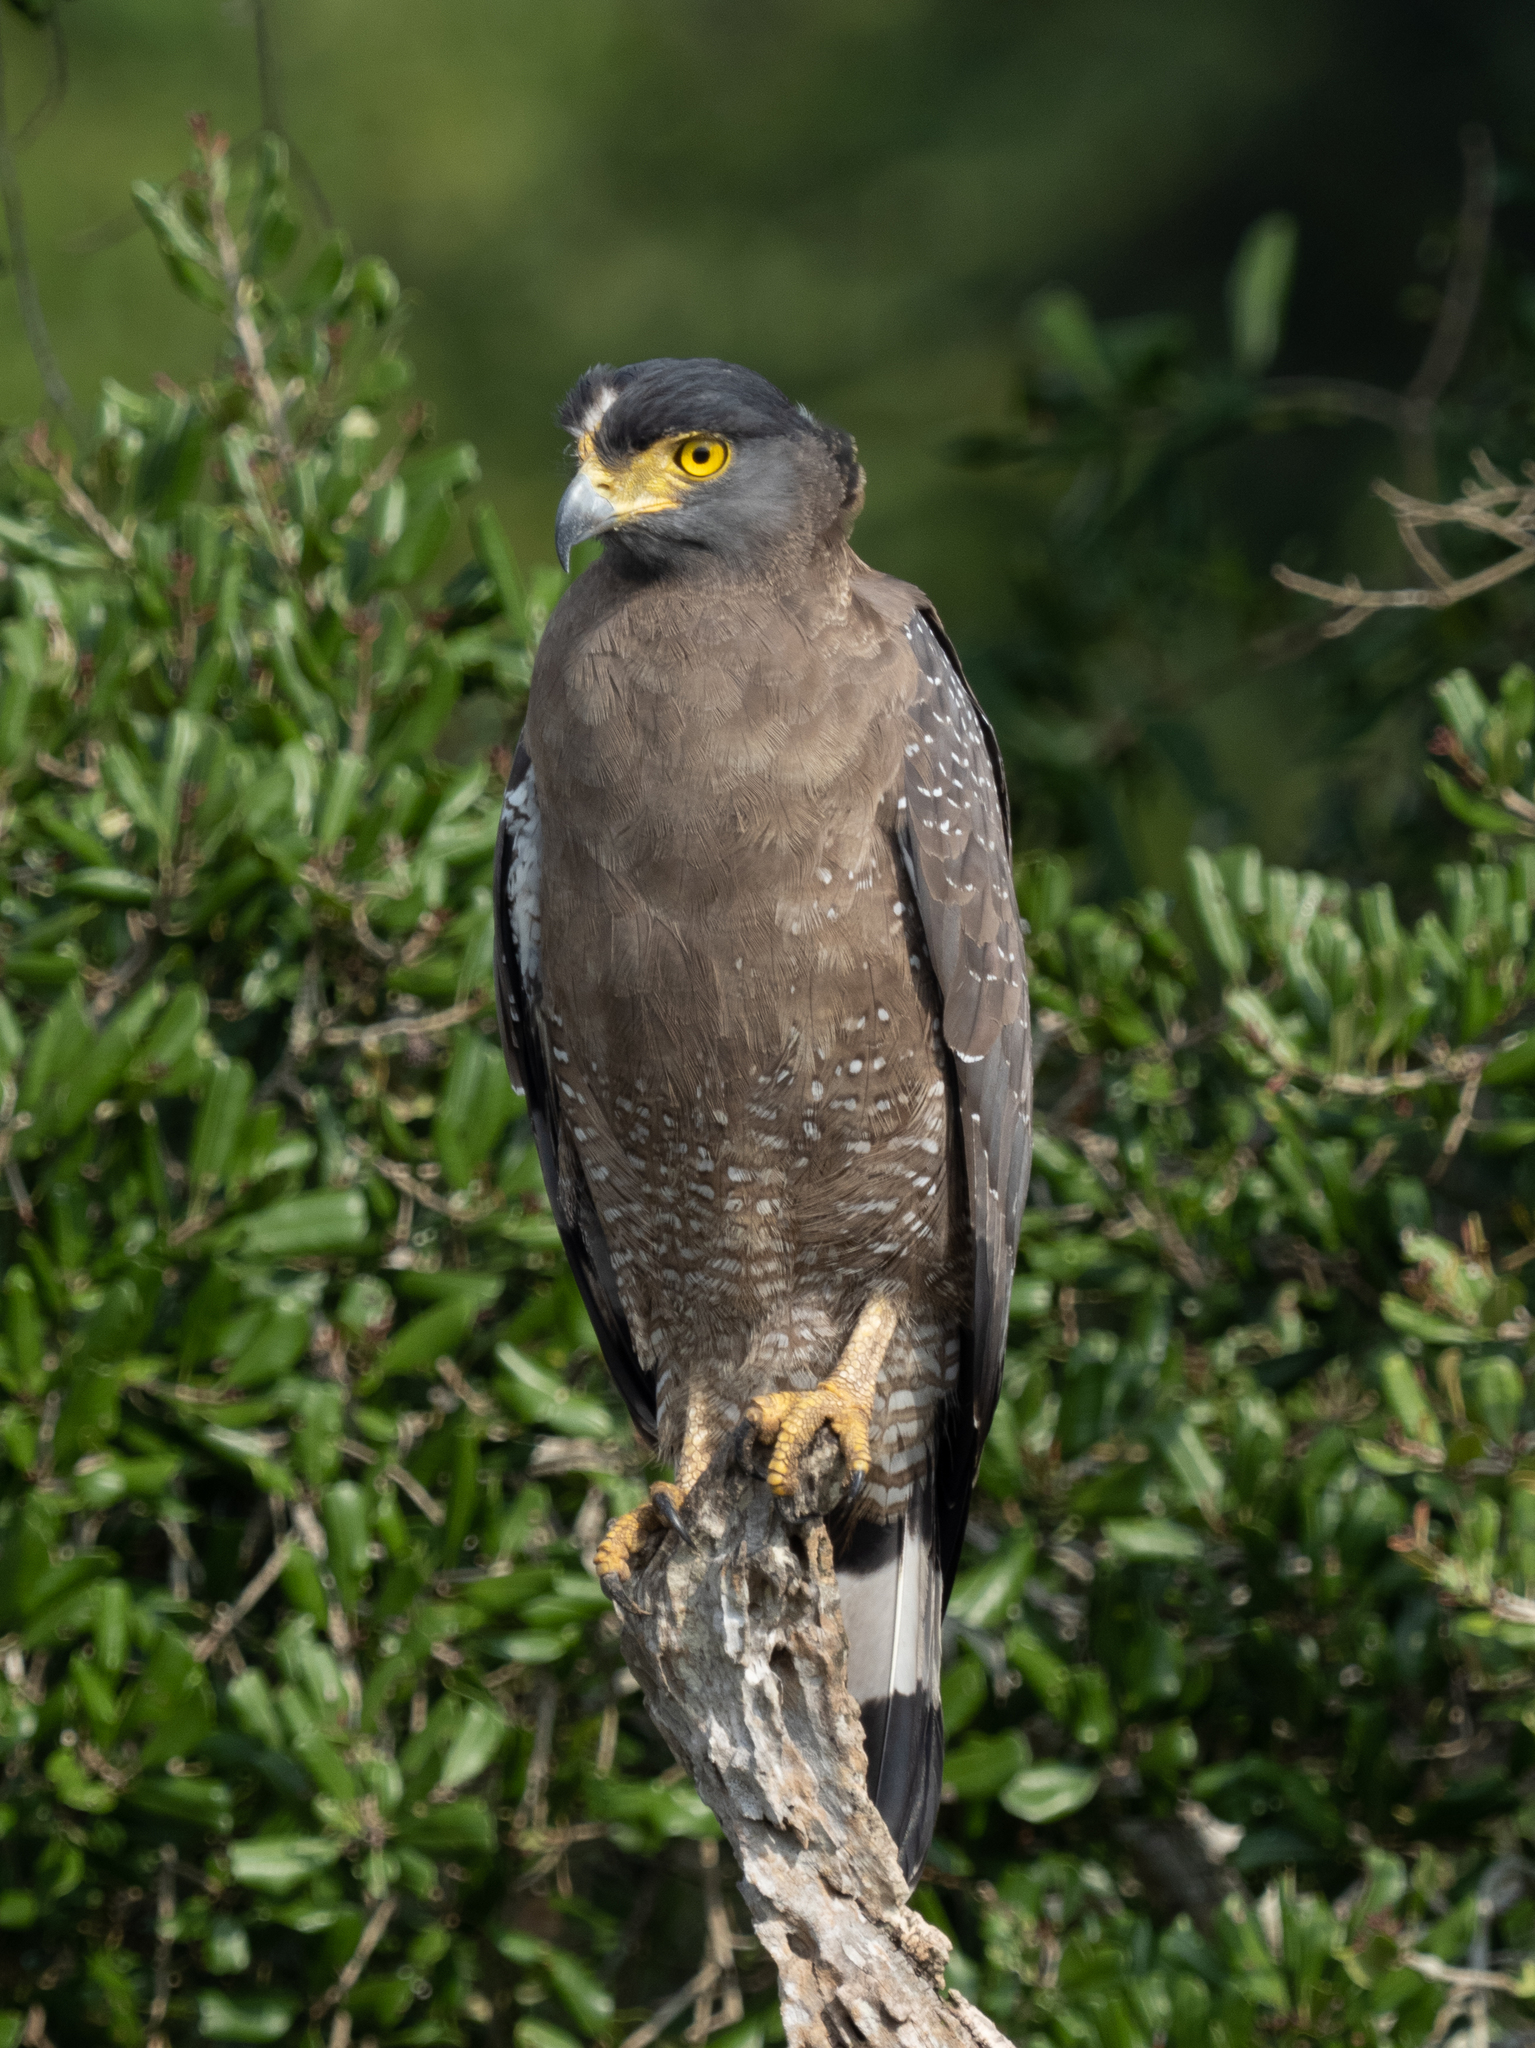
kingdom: Animalia
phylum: Chordata
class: Aves
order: Accipitriformes
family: Accipitridae
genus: Spilornis
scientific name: Spilornis cheela
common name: Crested serpent eagle
